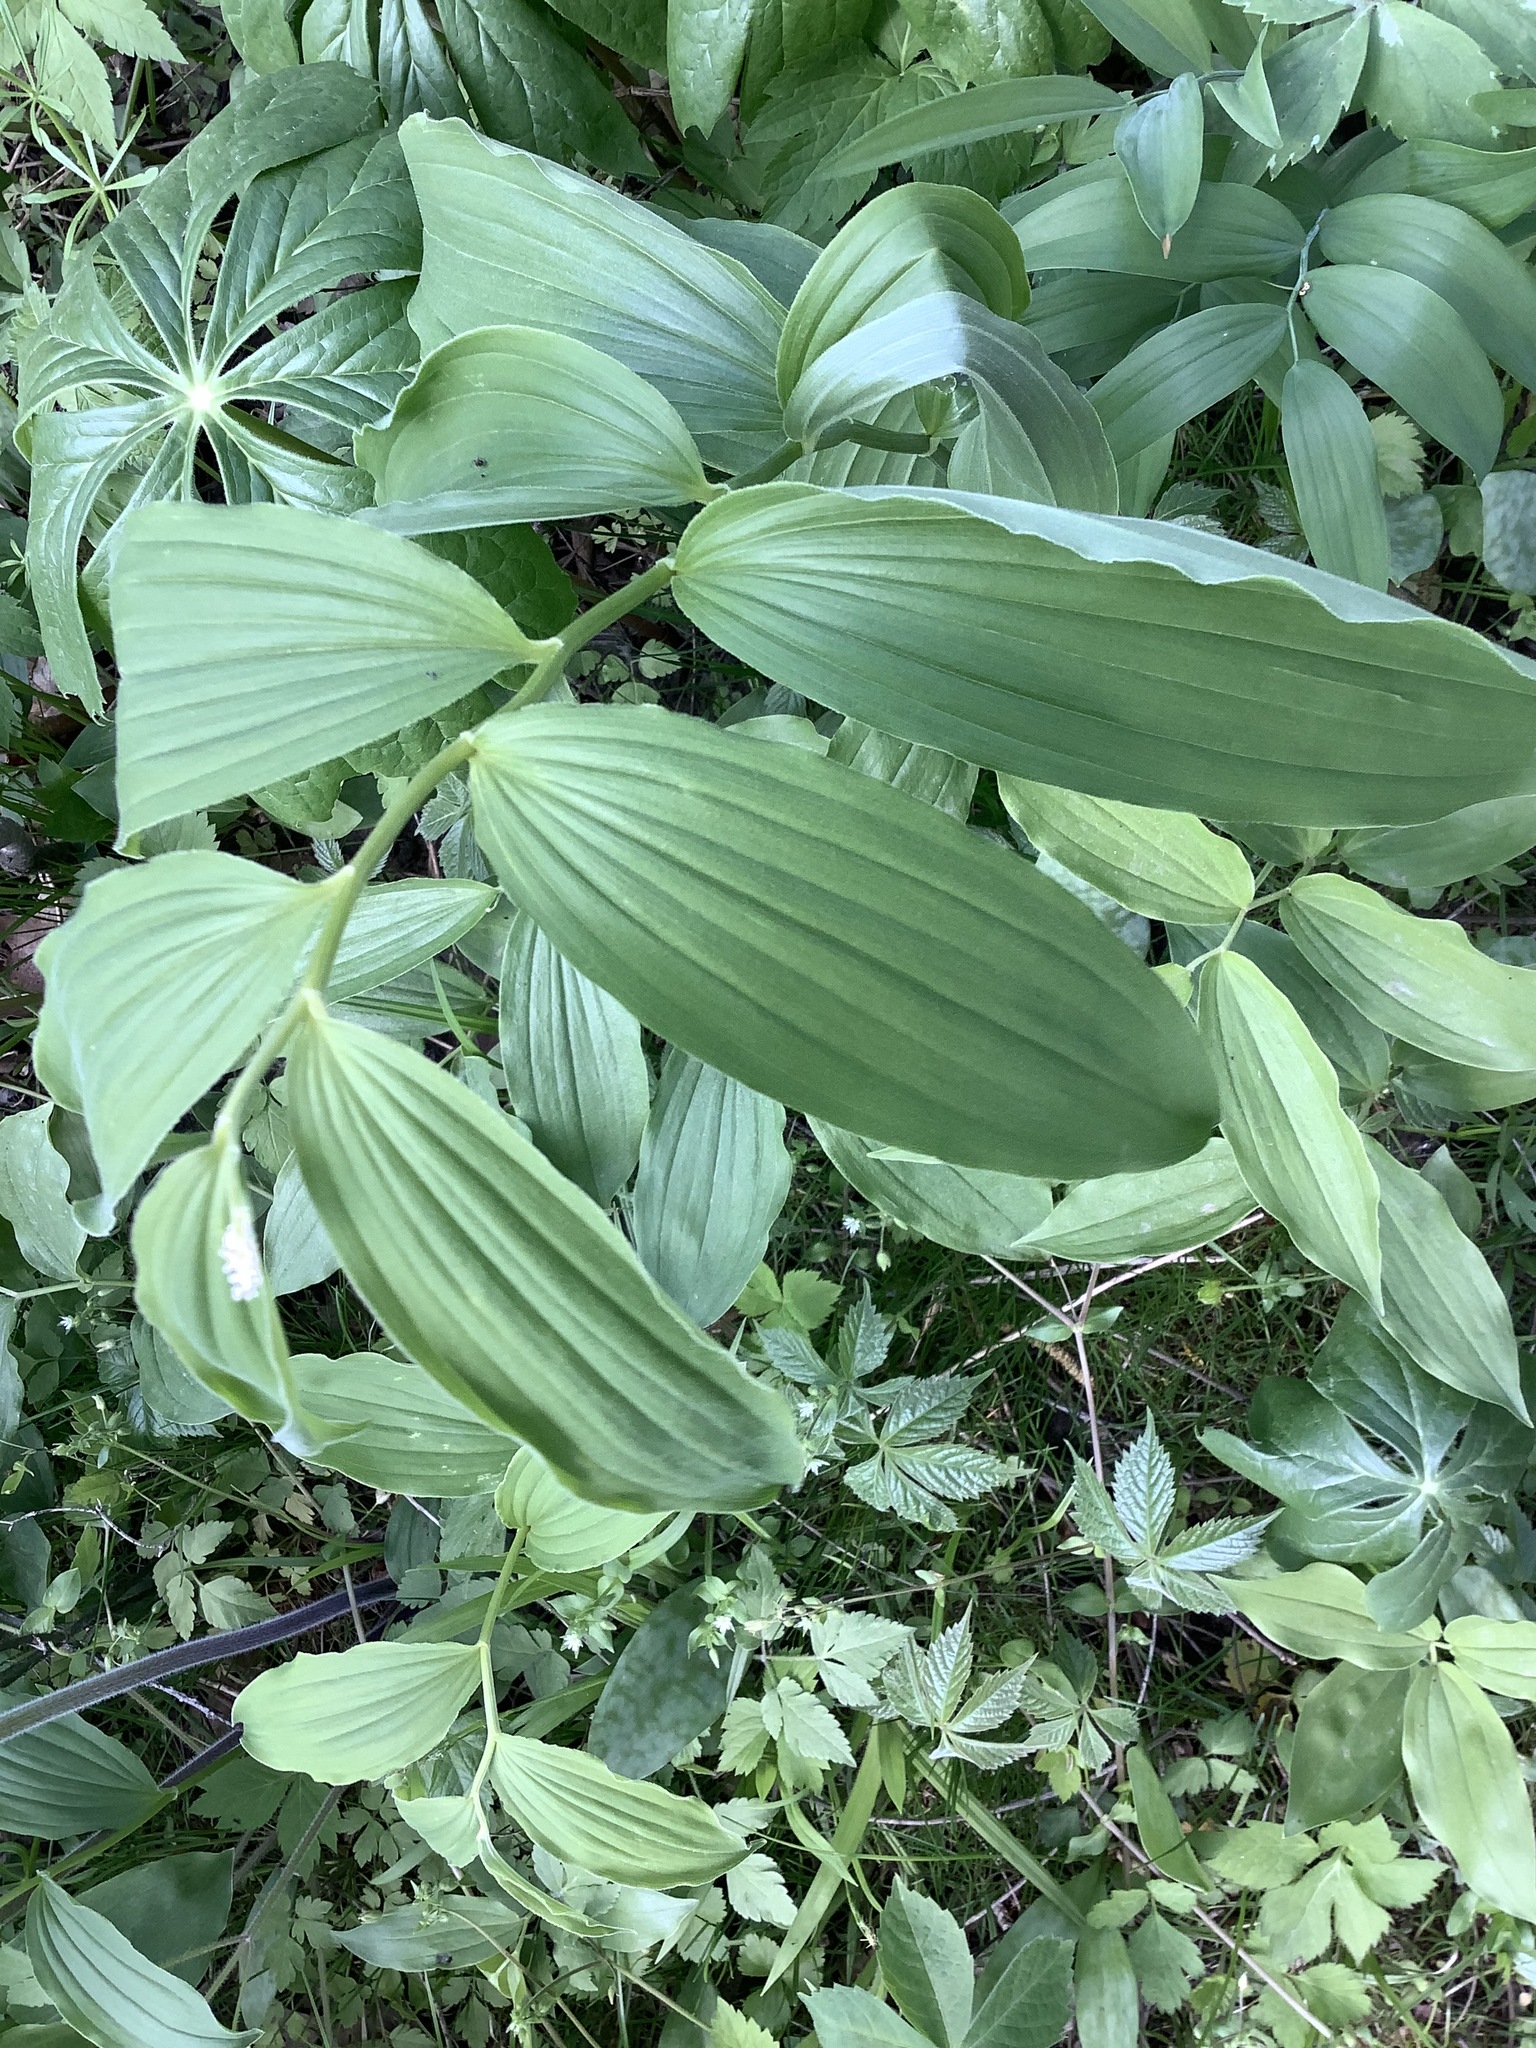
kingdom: Plantae
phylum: Tracheophyta
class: Liliopsida
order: Asparagales
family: Asparagaceae
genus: Maianthemum
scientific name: Maianthemum racemosum
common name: False spikenard
